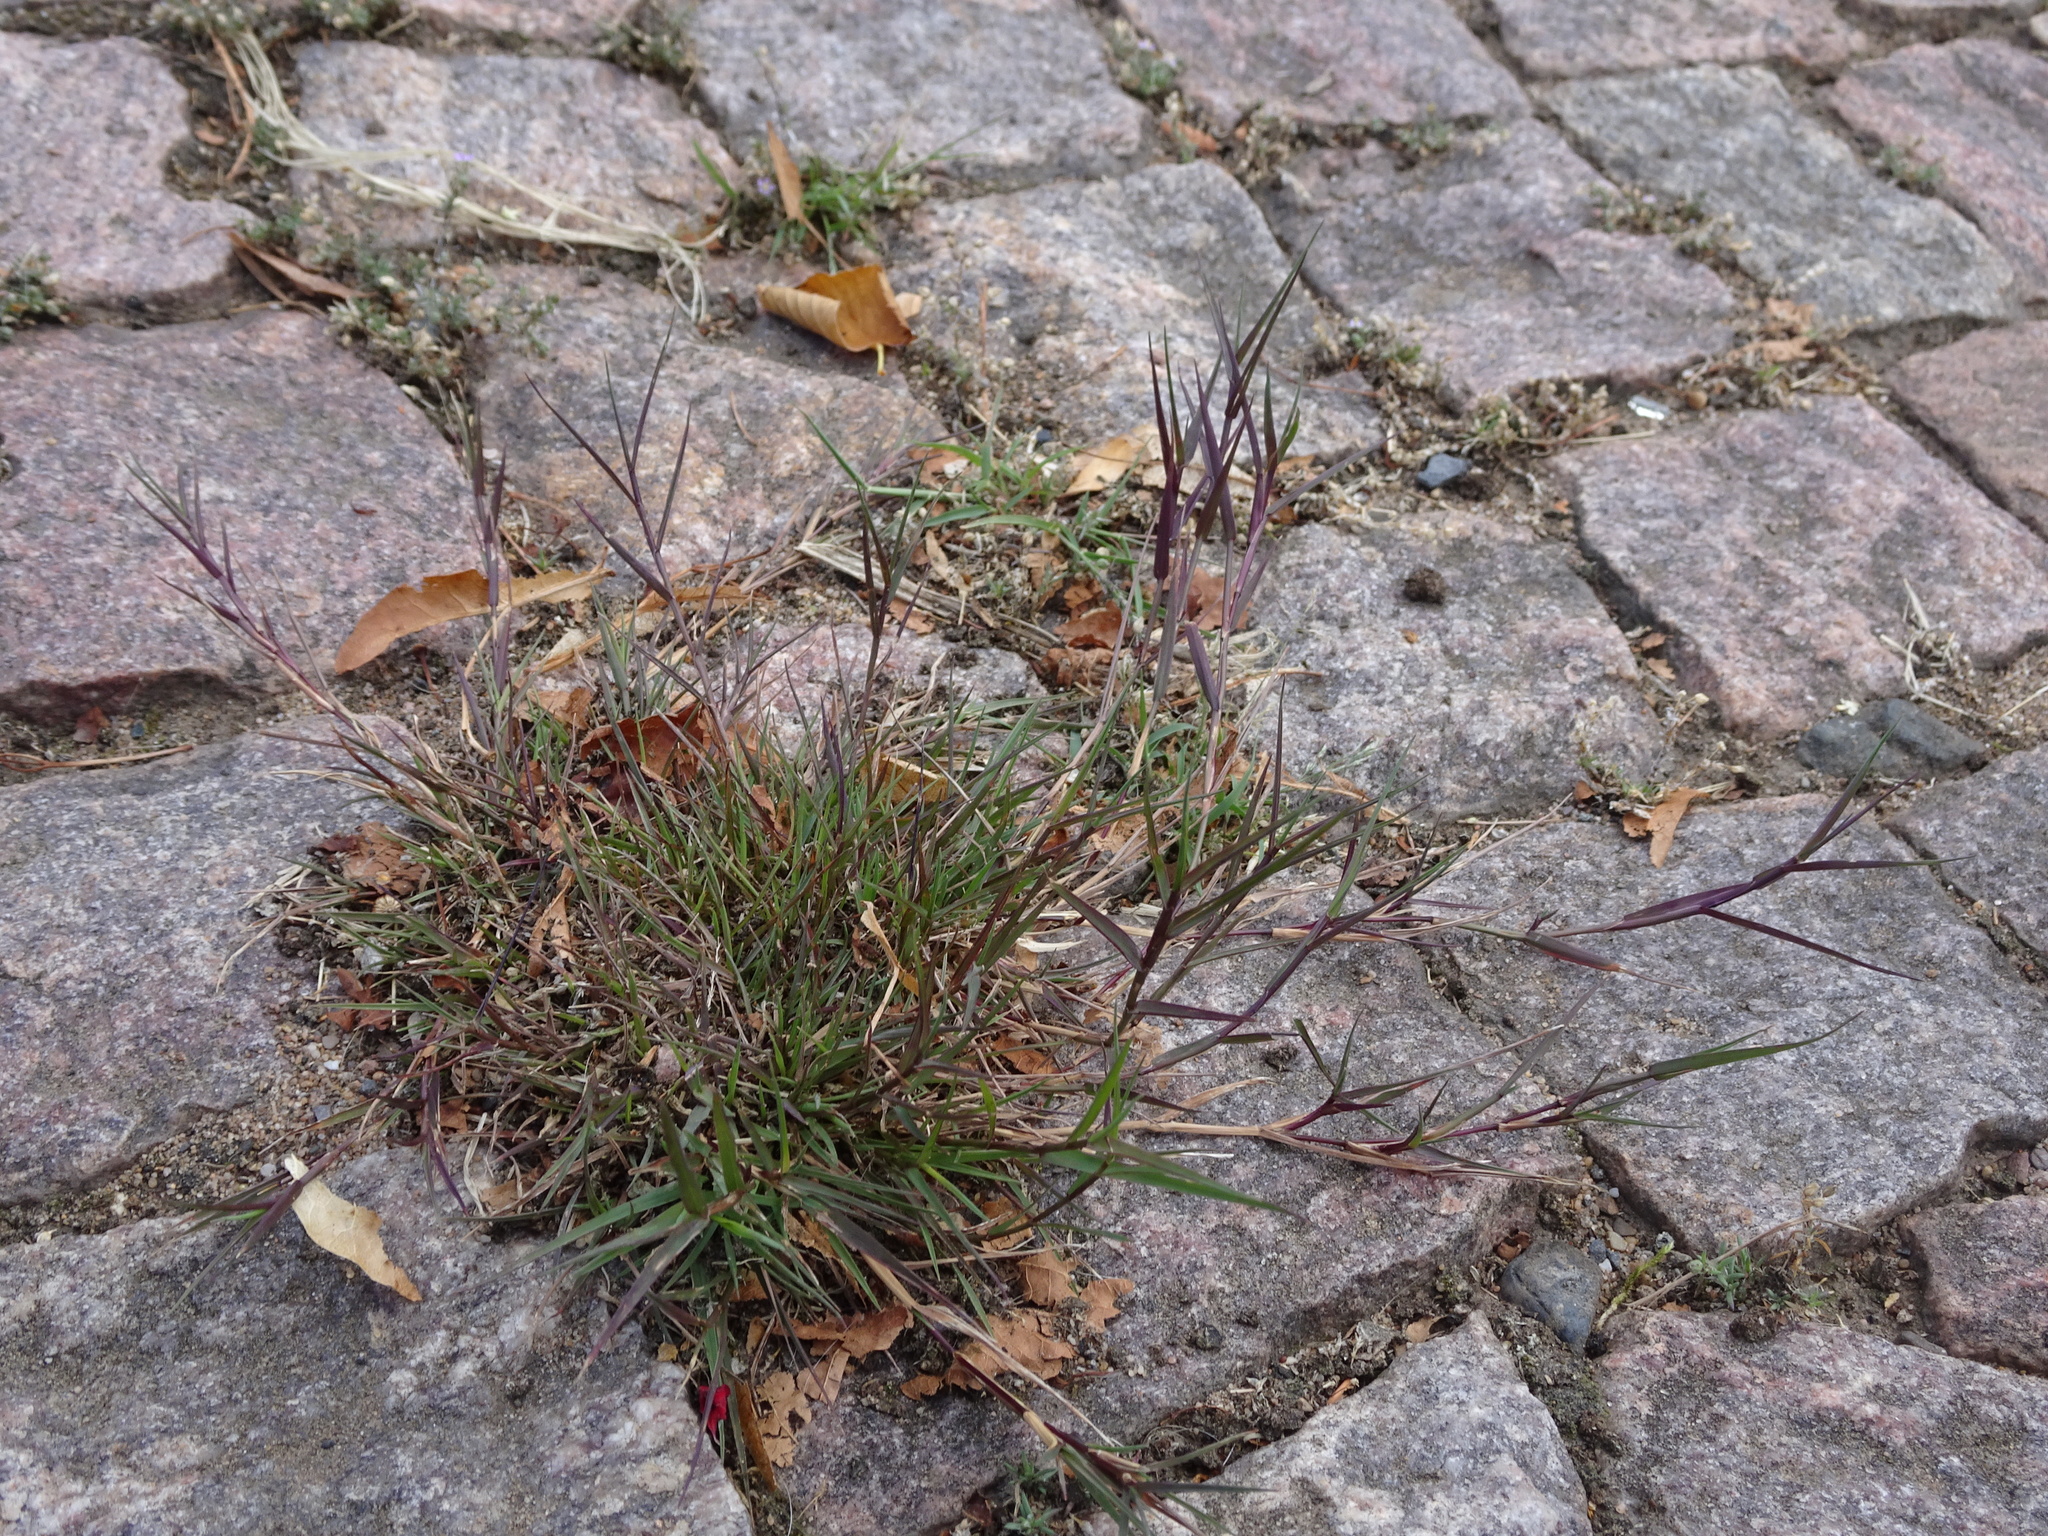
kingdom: Plantae
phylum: Tracheophyta
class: Liliopsida
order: Poales
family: Poaceae
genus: Agrostis
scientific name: Agrostis stolonifera
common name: Creeping bentgrass
